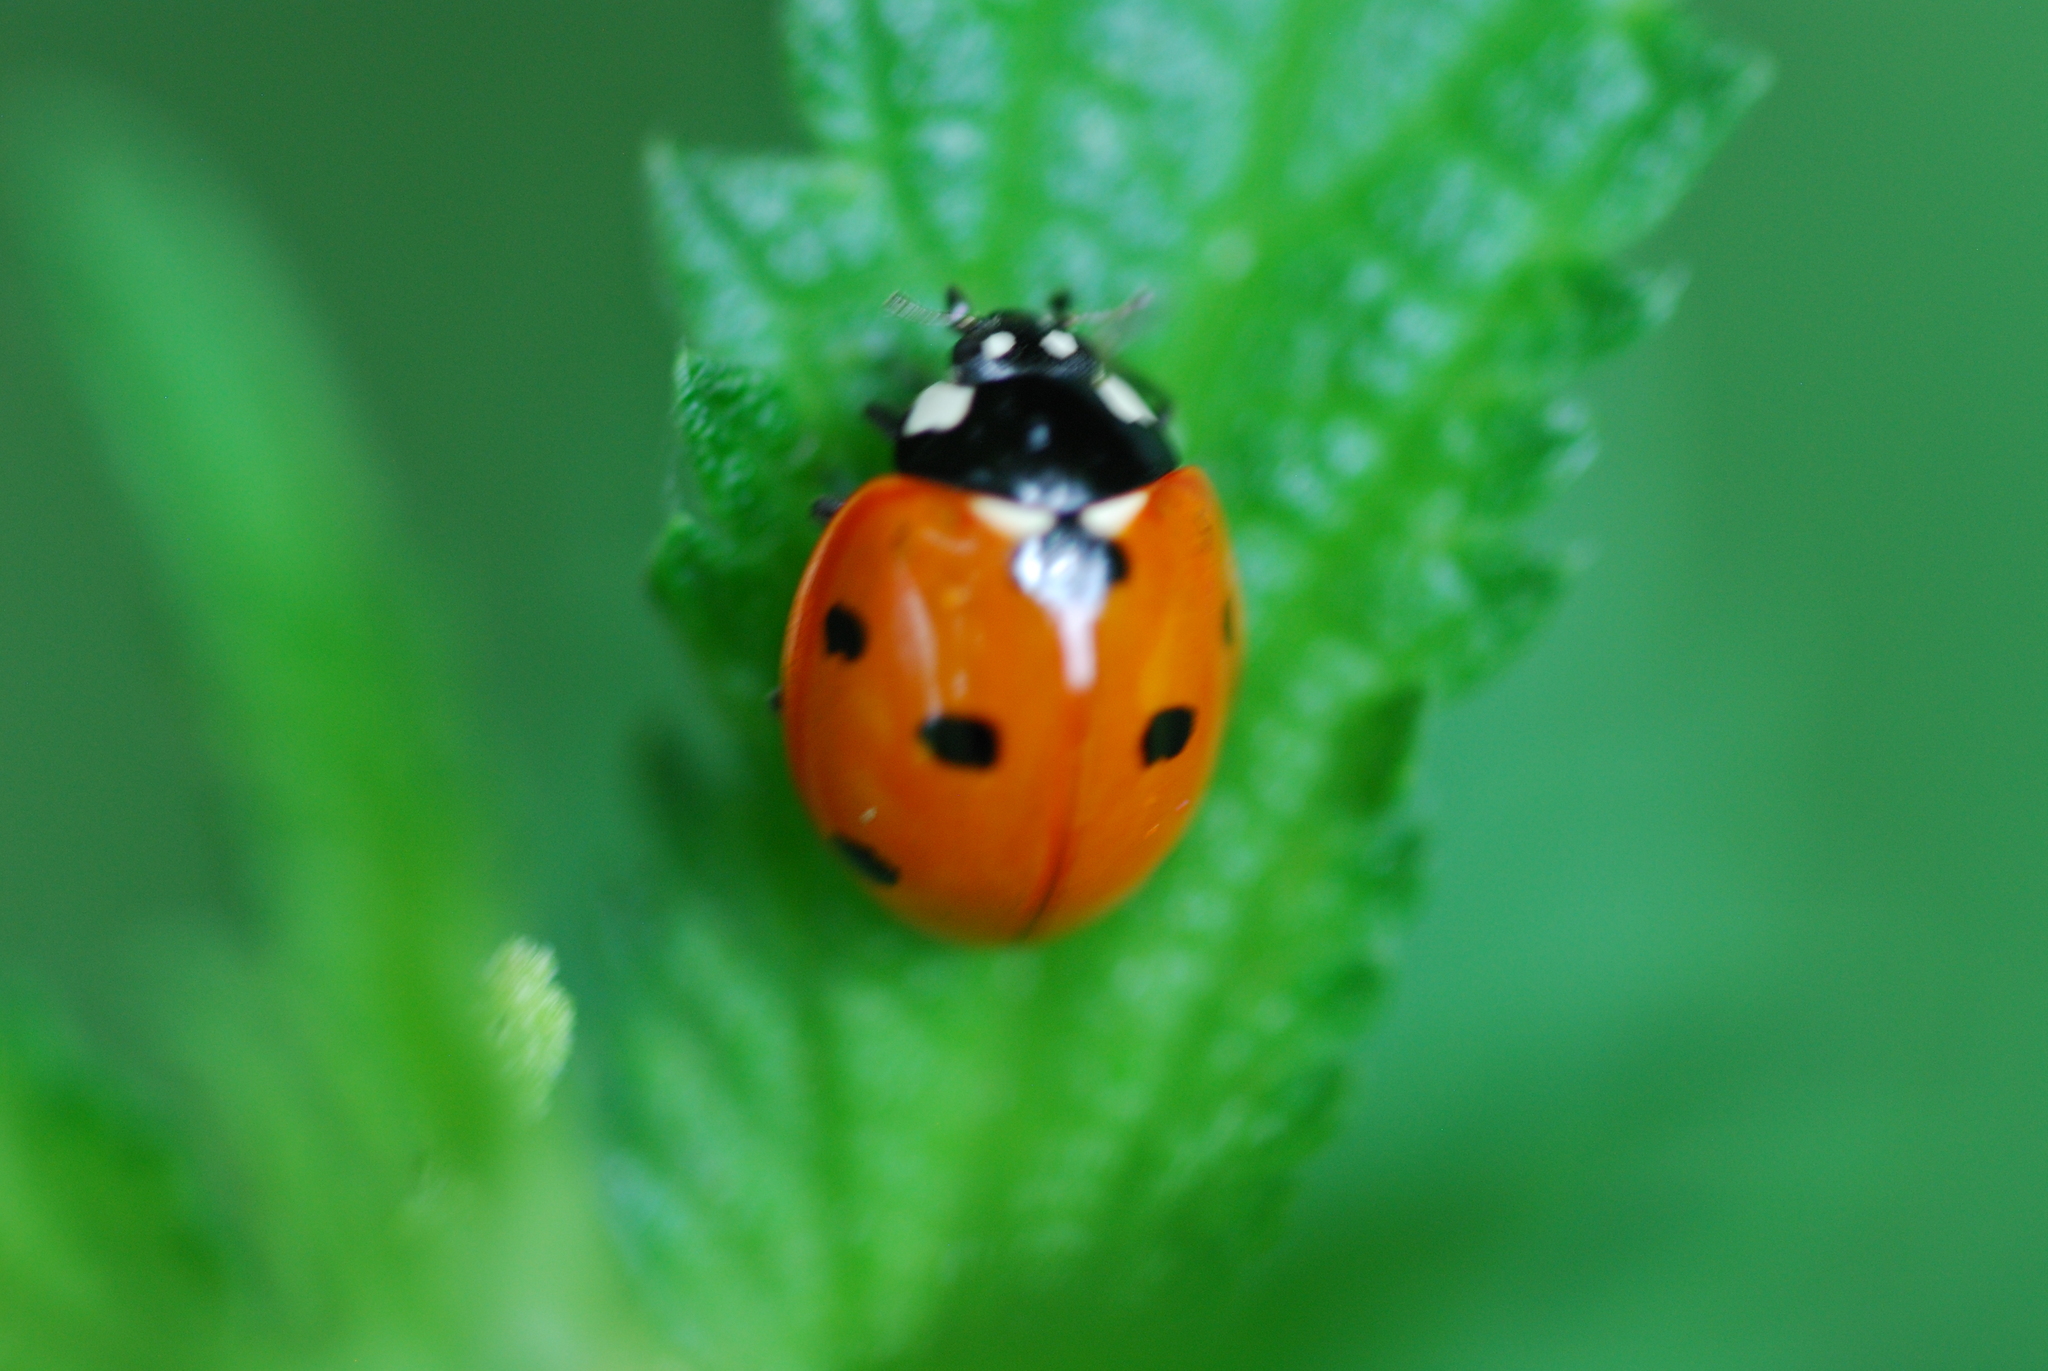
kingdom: Animalia
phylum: Arthropoda
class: Insecta
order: Coleoptera
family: Coccinellidae
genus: Coccinella
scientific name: Coccinella septempunctata
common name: Sevenspotted lady beetle
